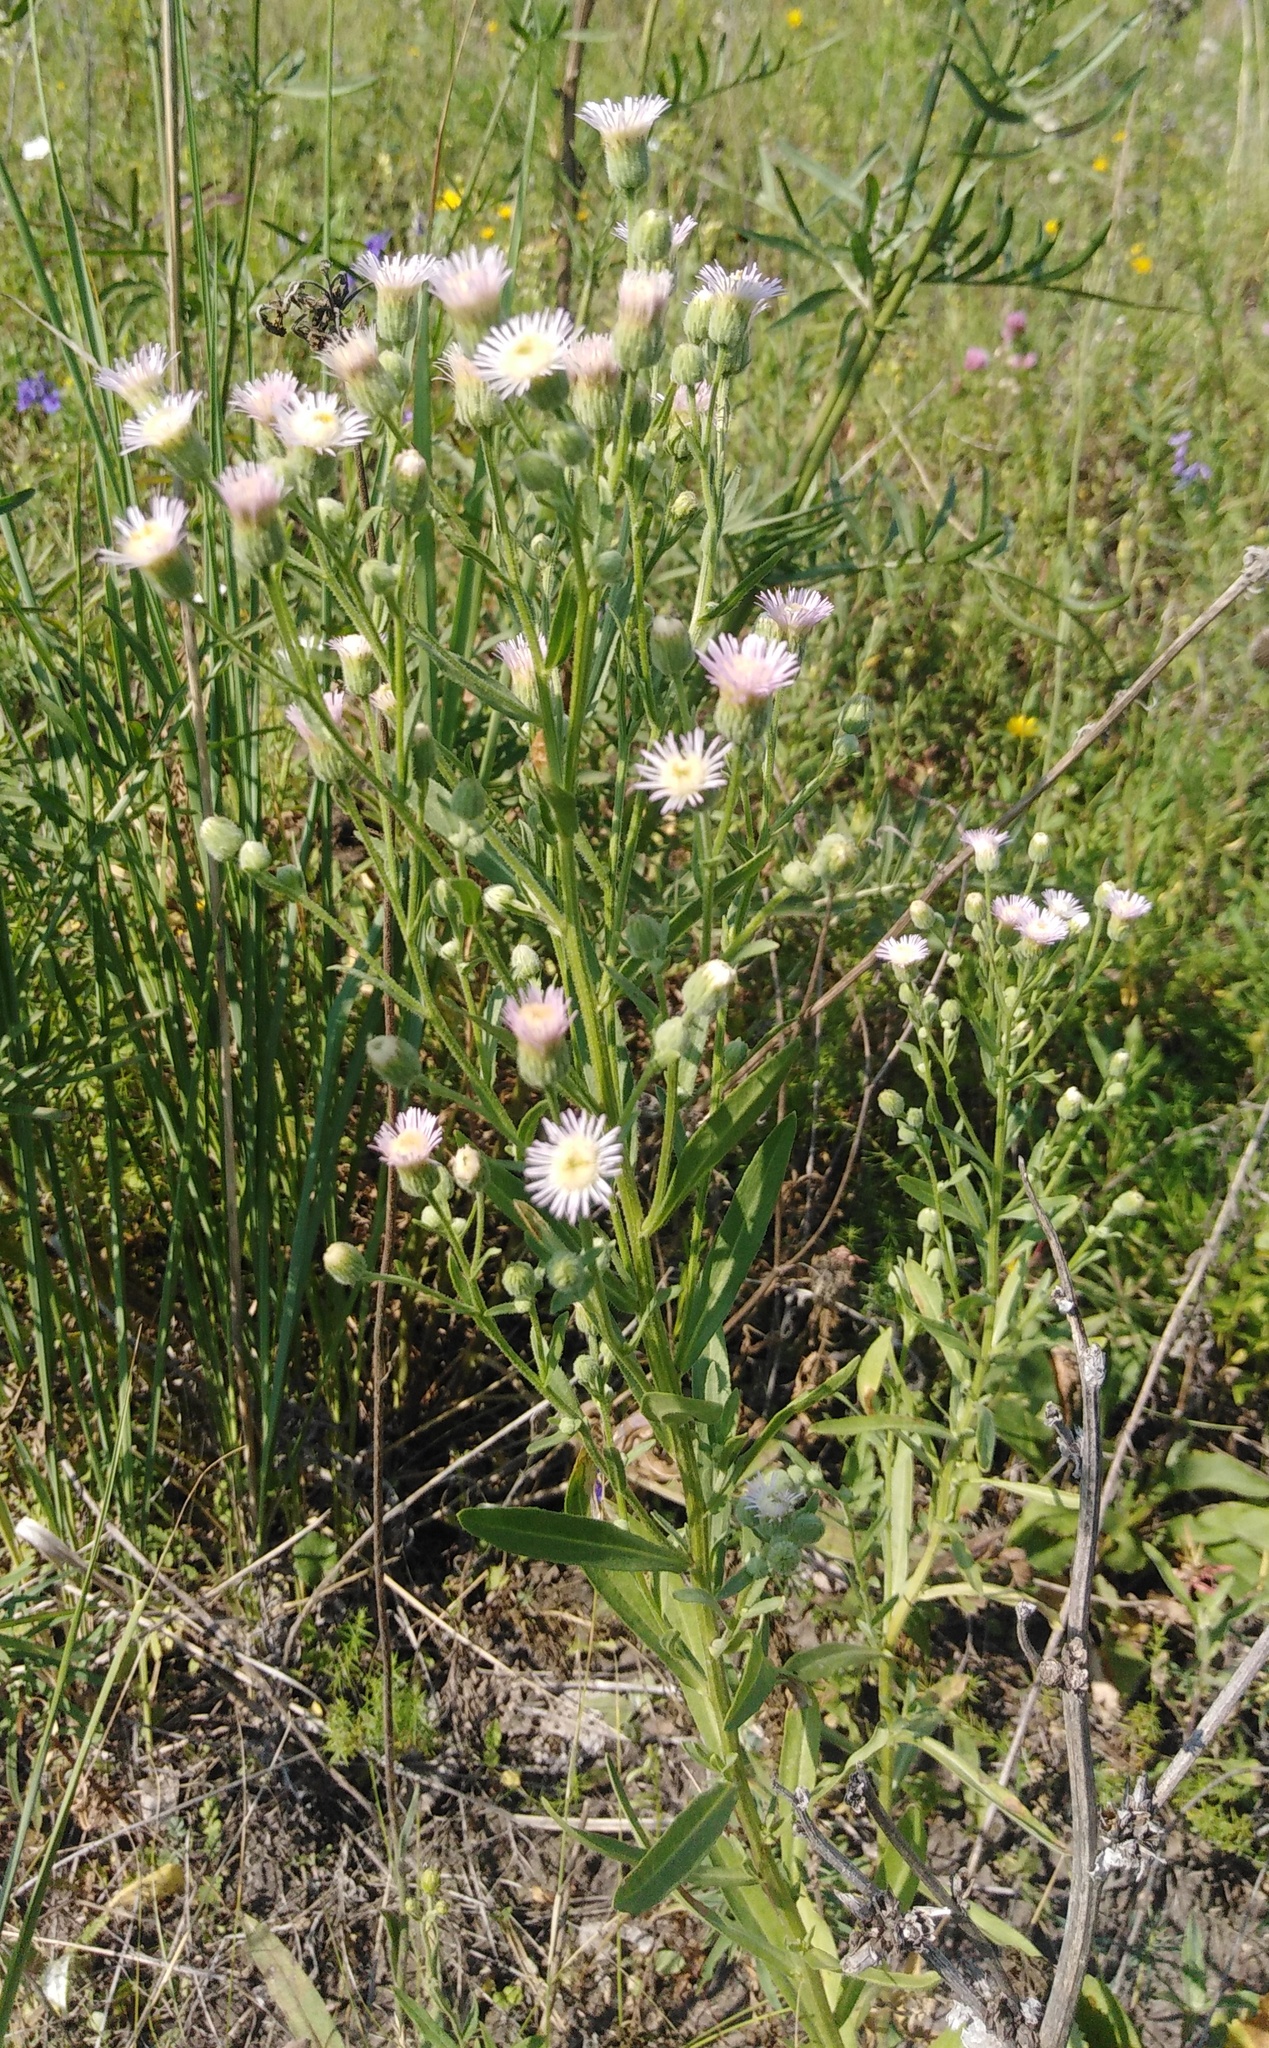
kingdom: Plantae
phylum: Tracheophyta
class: Magnoliopsida
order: Asterales
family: Asteraceae
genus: Erigeron
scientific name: Erigeron podolicus
